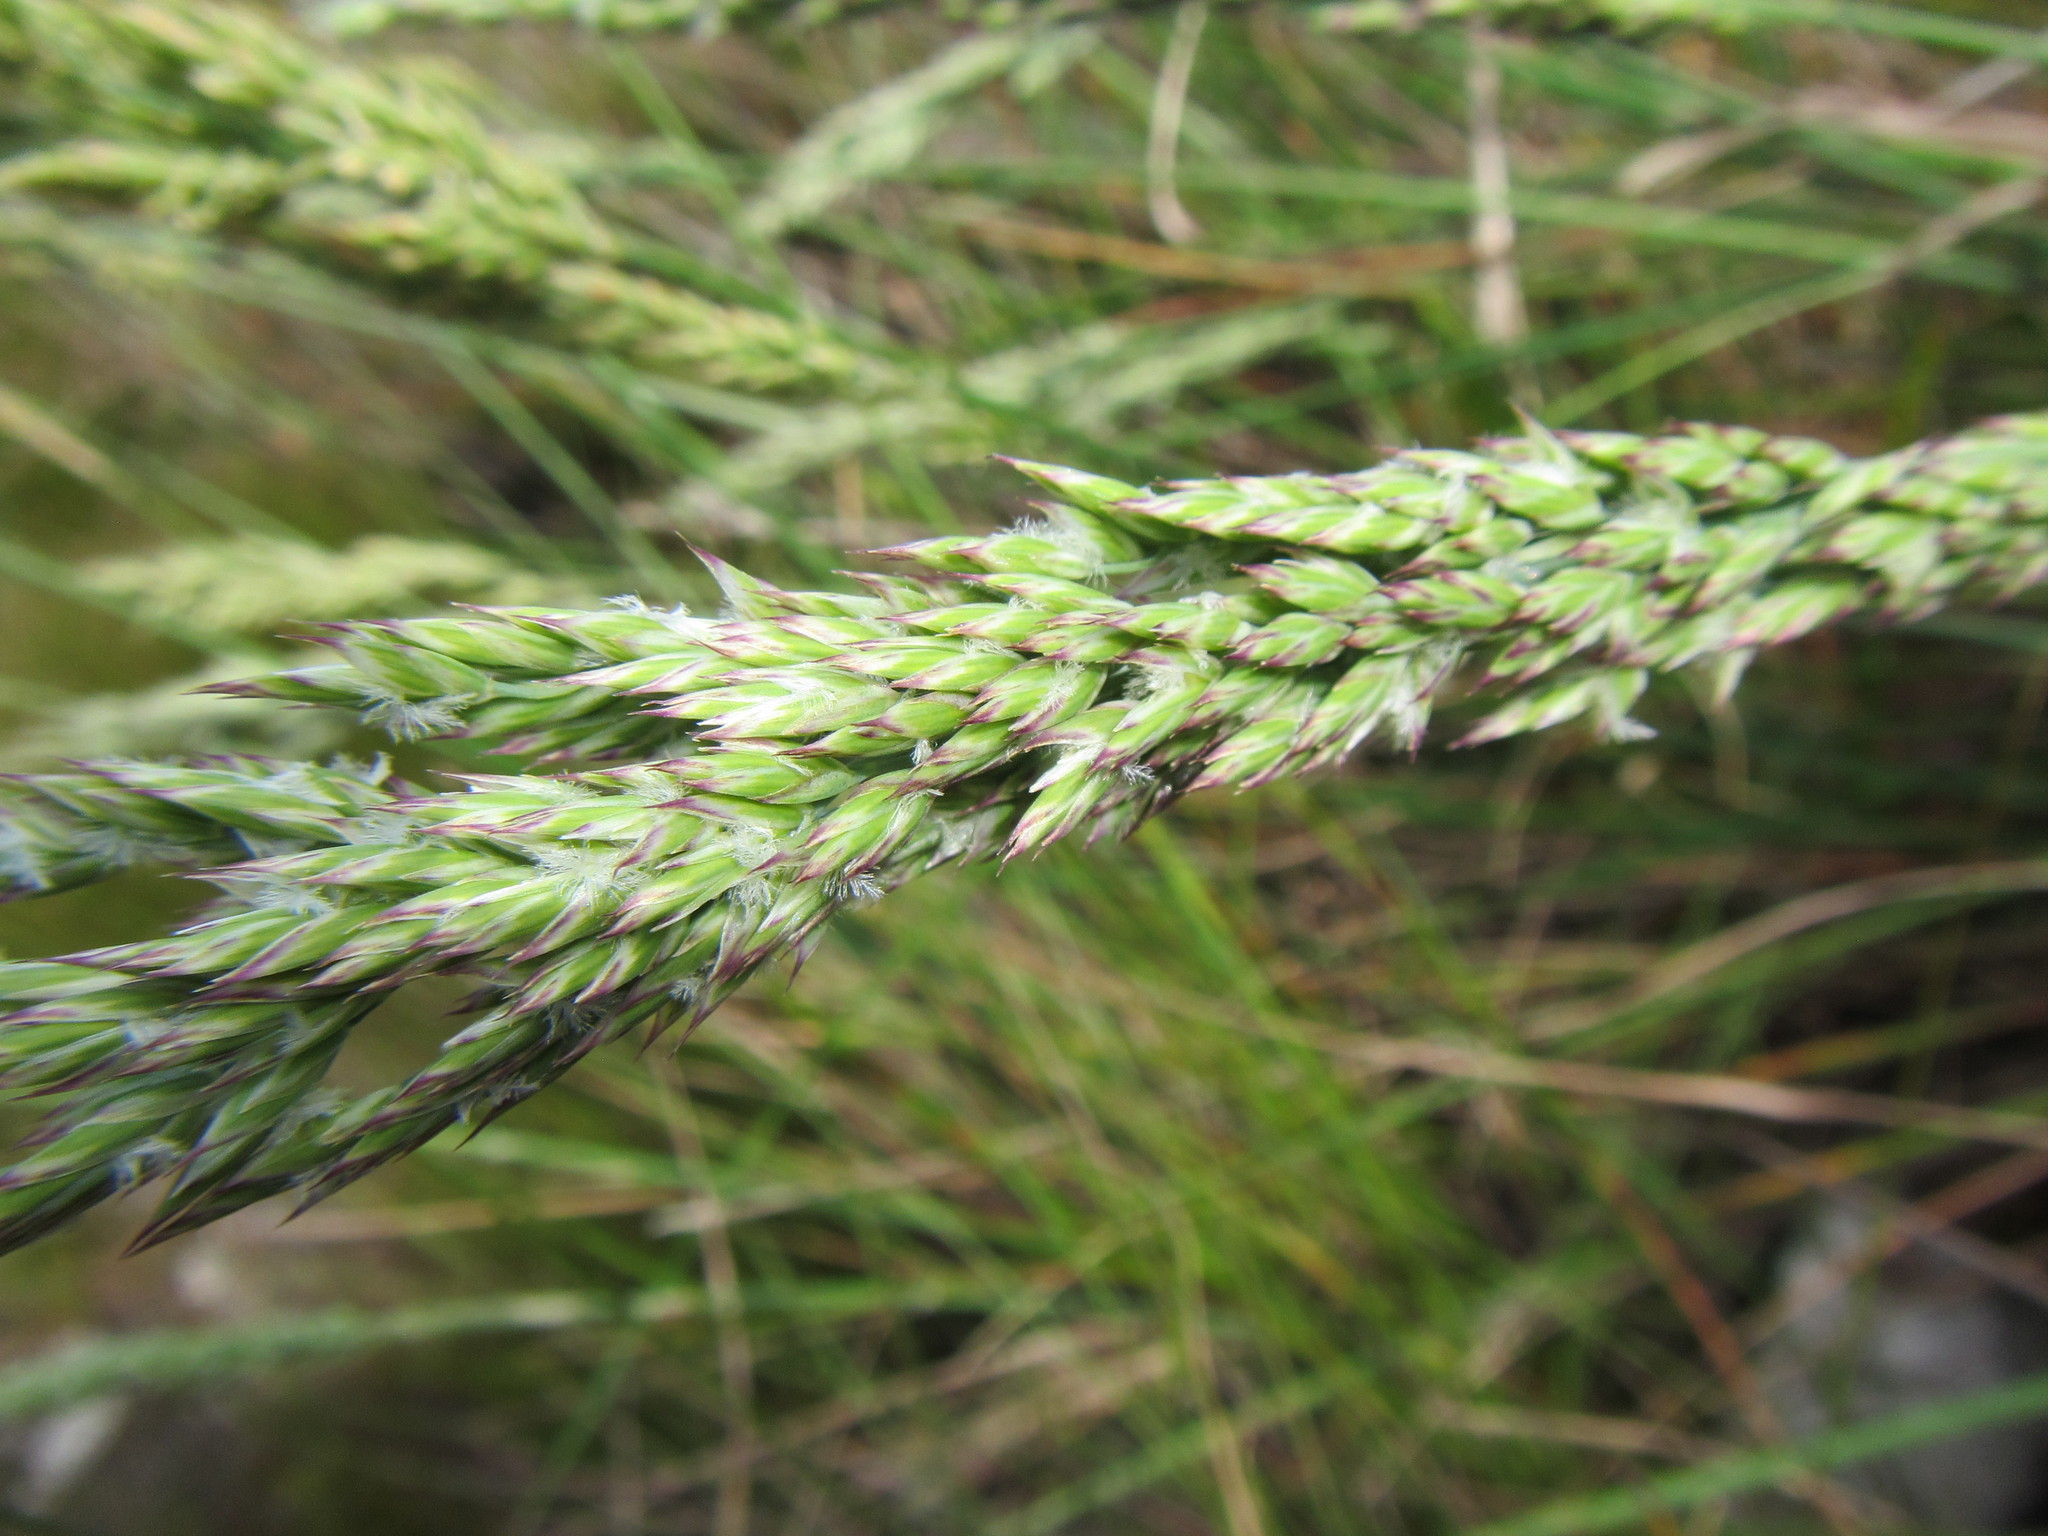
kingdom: Plantae
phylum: Tracheophyta
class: Liliopsida
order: Poales
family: Poaceae
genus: Festuca
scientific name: Festuca scabra
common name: Munnik fescue
